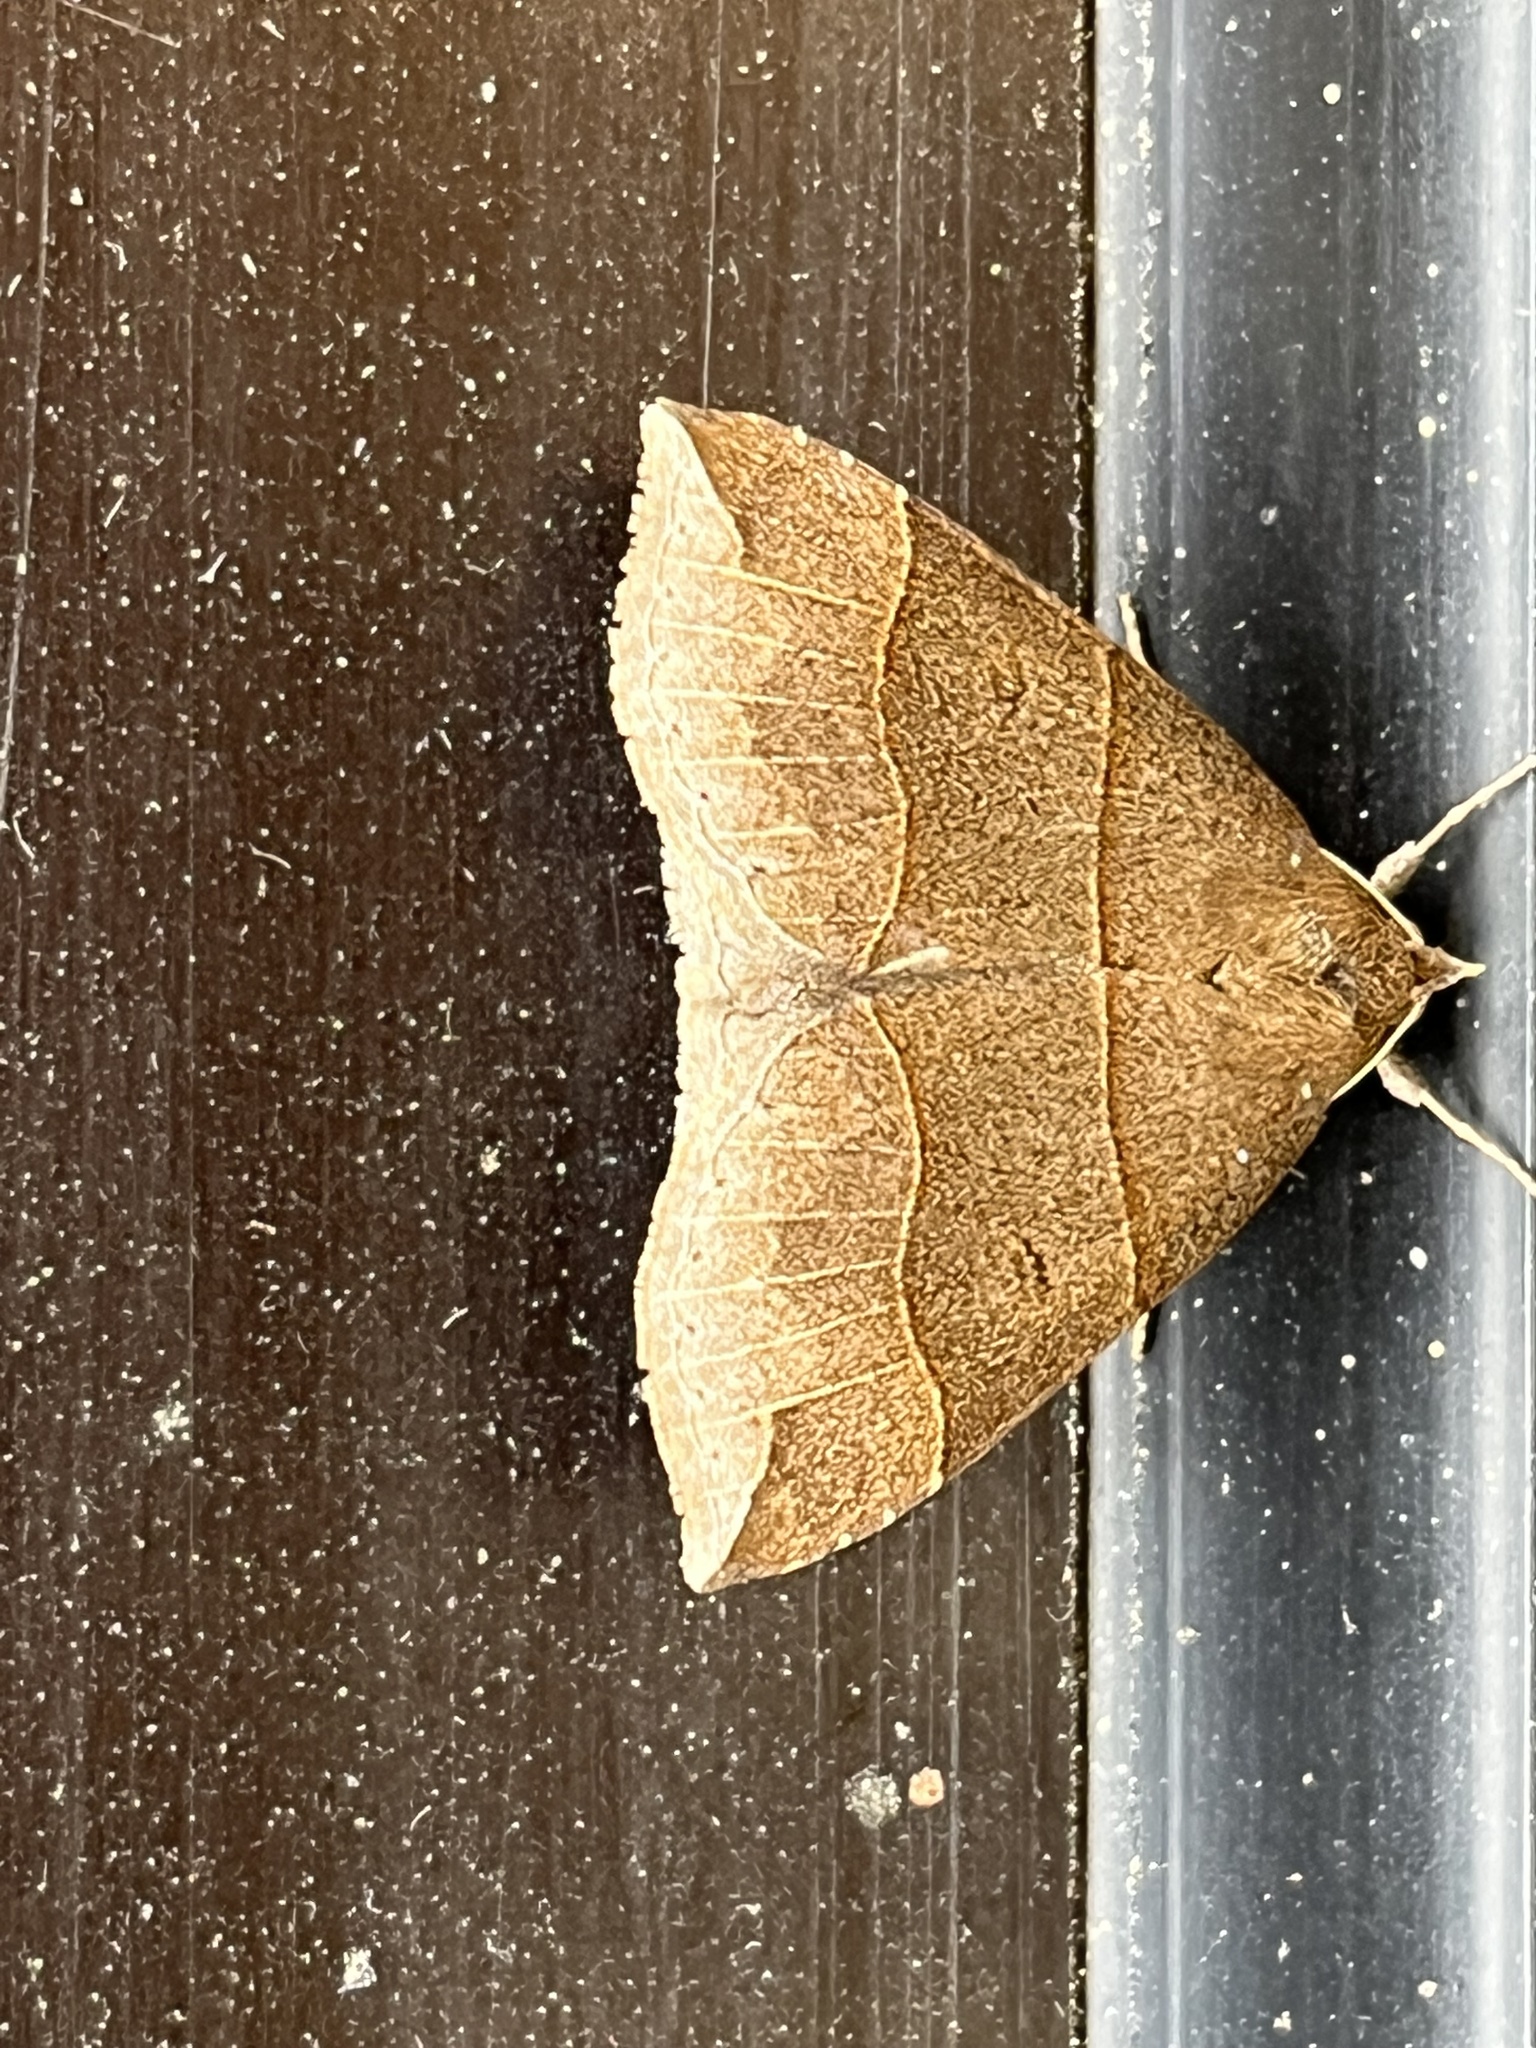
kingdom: Animalia
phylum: Arthropoda
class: Insecta
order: Lepidoptera
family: Erebidae
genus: Parallelia
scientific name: Parallelia bistriaris
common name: Maple looper moth
